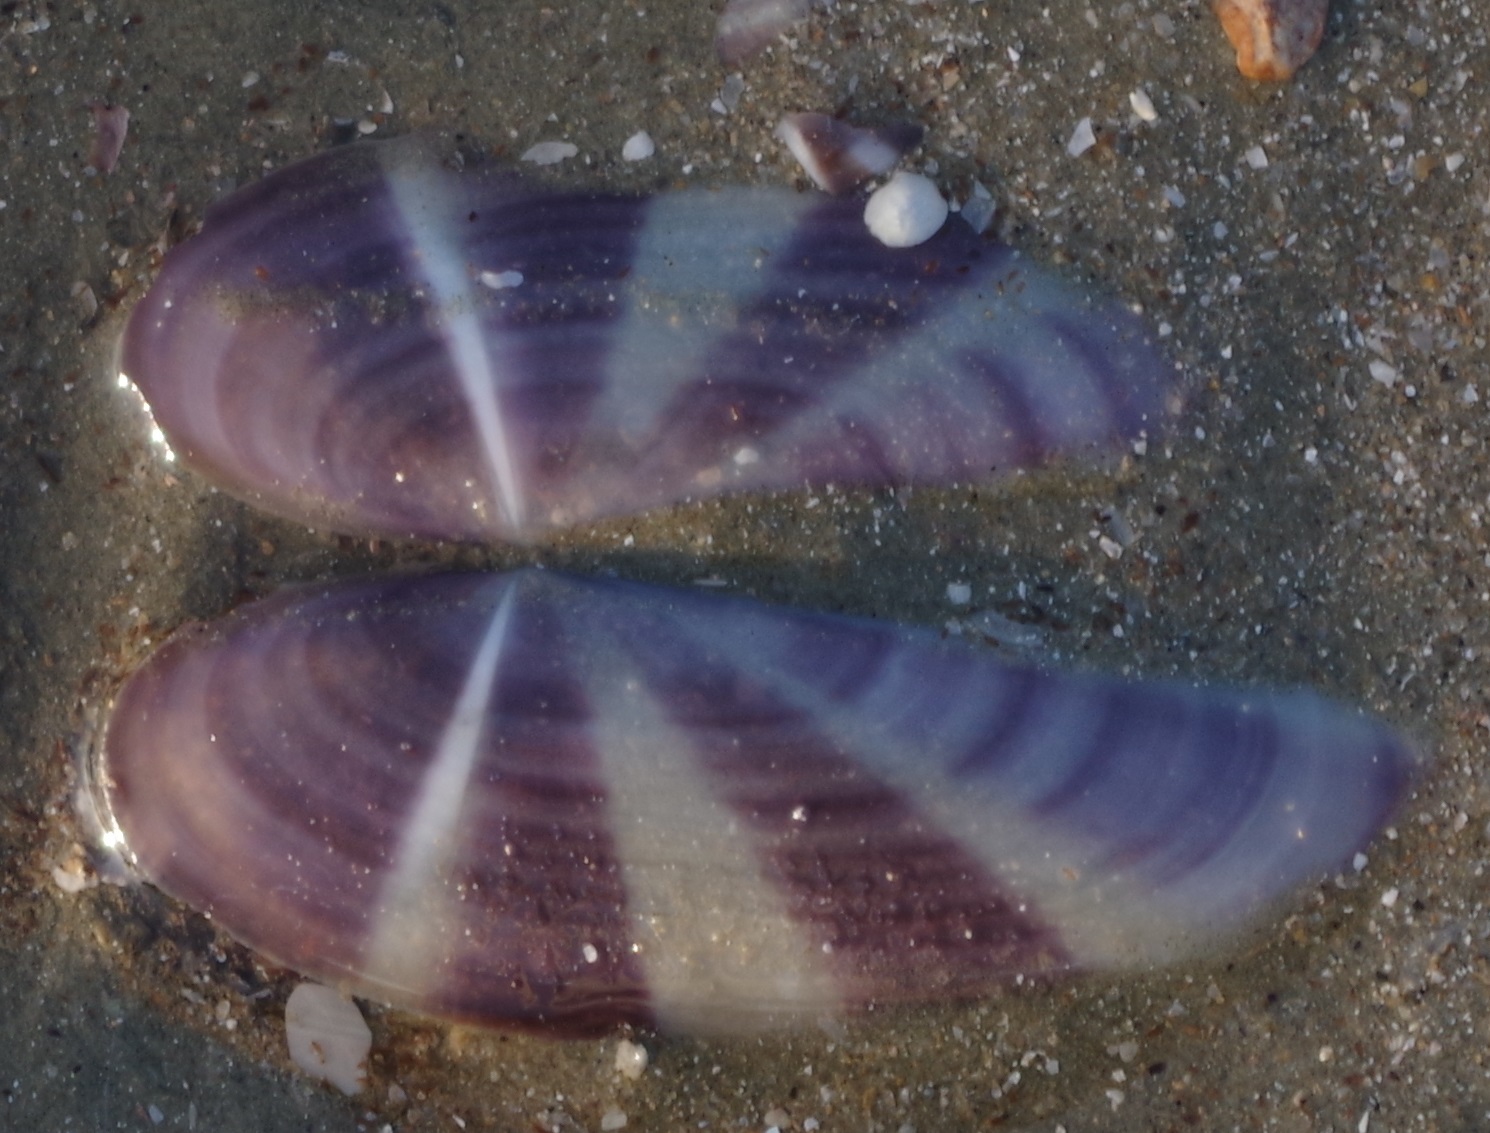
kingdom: Animalia
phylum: Mollusca
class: Bivalvia
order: Adapedonta
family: Pharidae
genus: Siliqua
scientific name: Siliqua radiata
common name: Sunset razor clam
